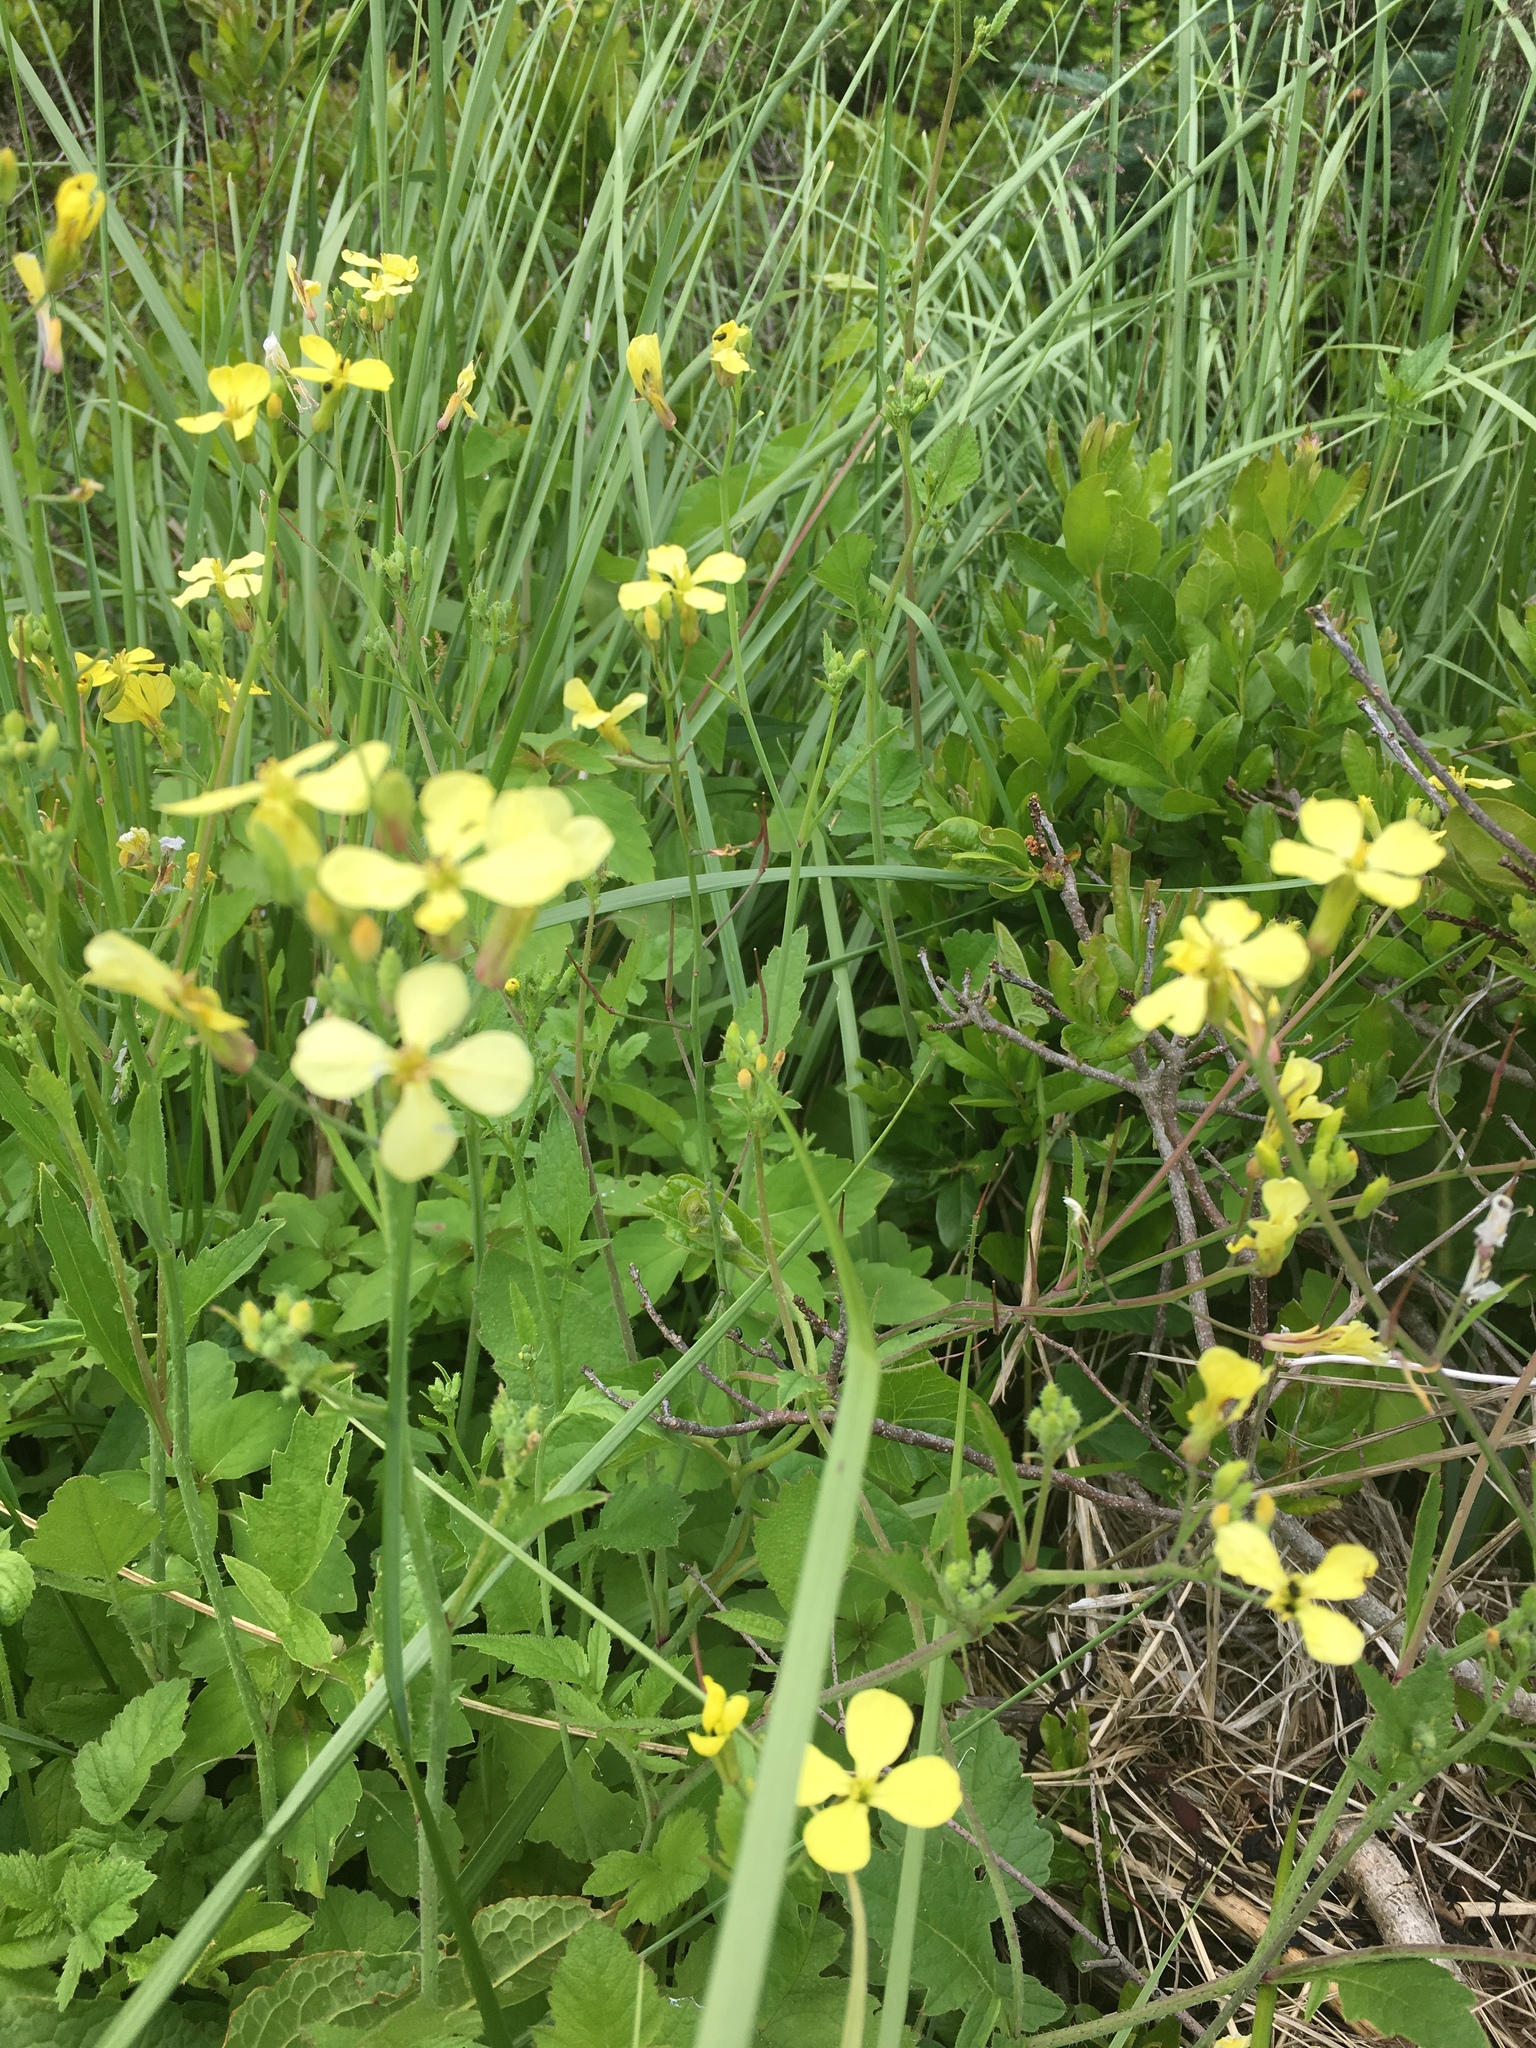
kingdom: Plantae
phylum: Tracheophyta
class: Magnoliopsida
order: Brassicales
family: Brassicaceae
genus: Raphanus
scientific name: Raphanus raphanistrum
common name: Wild radish
